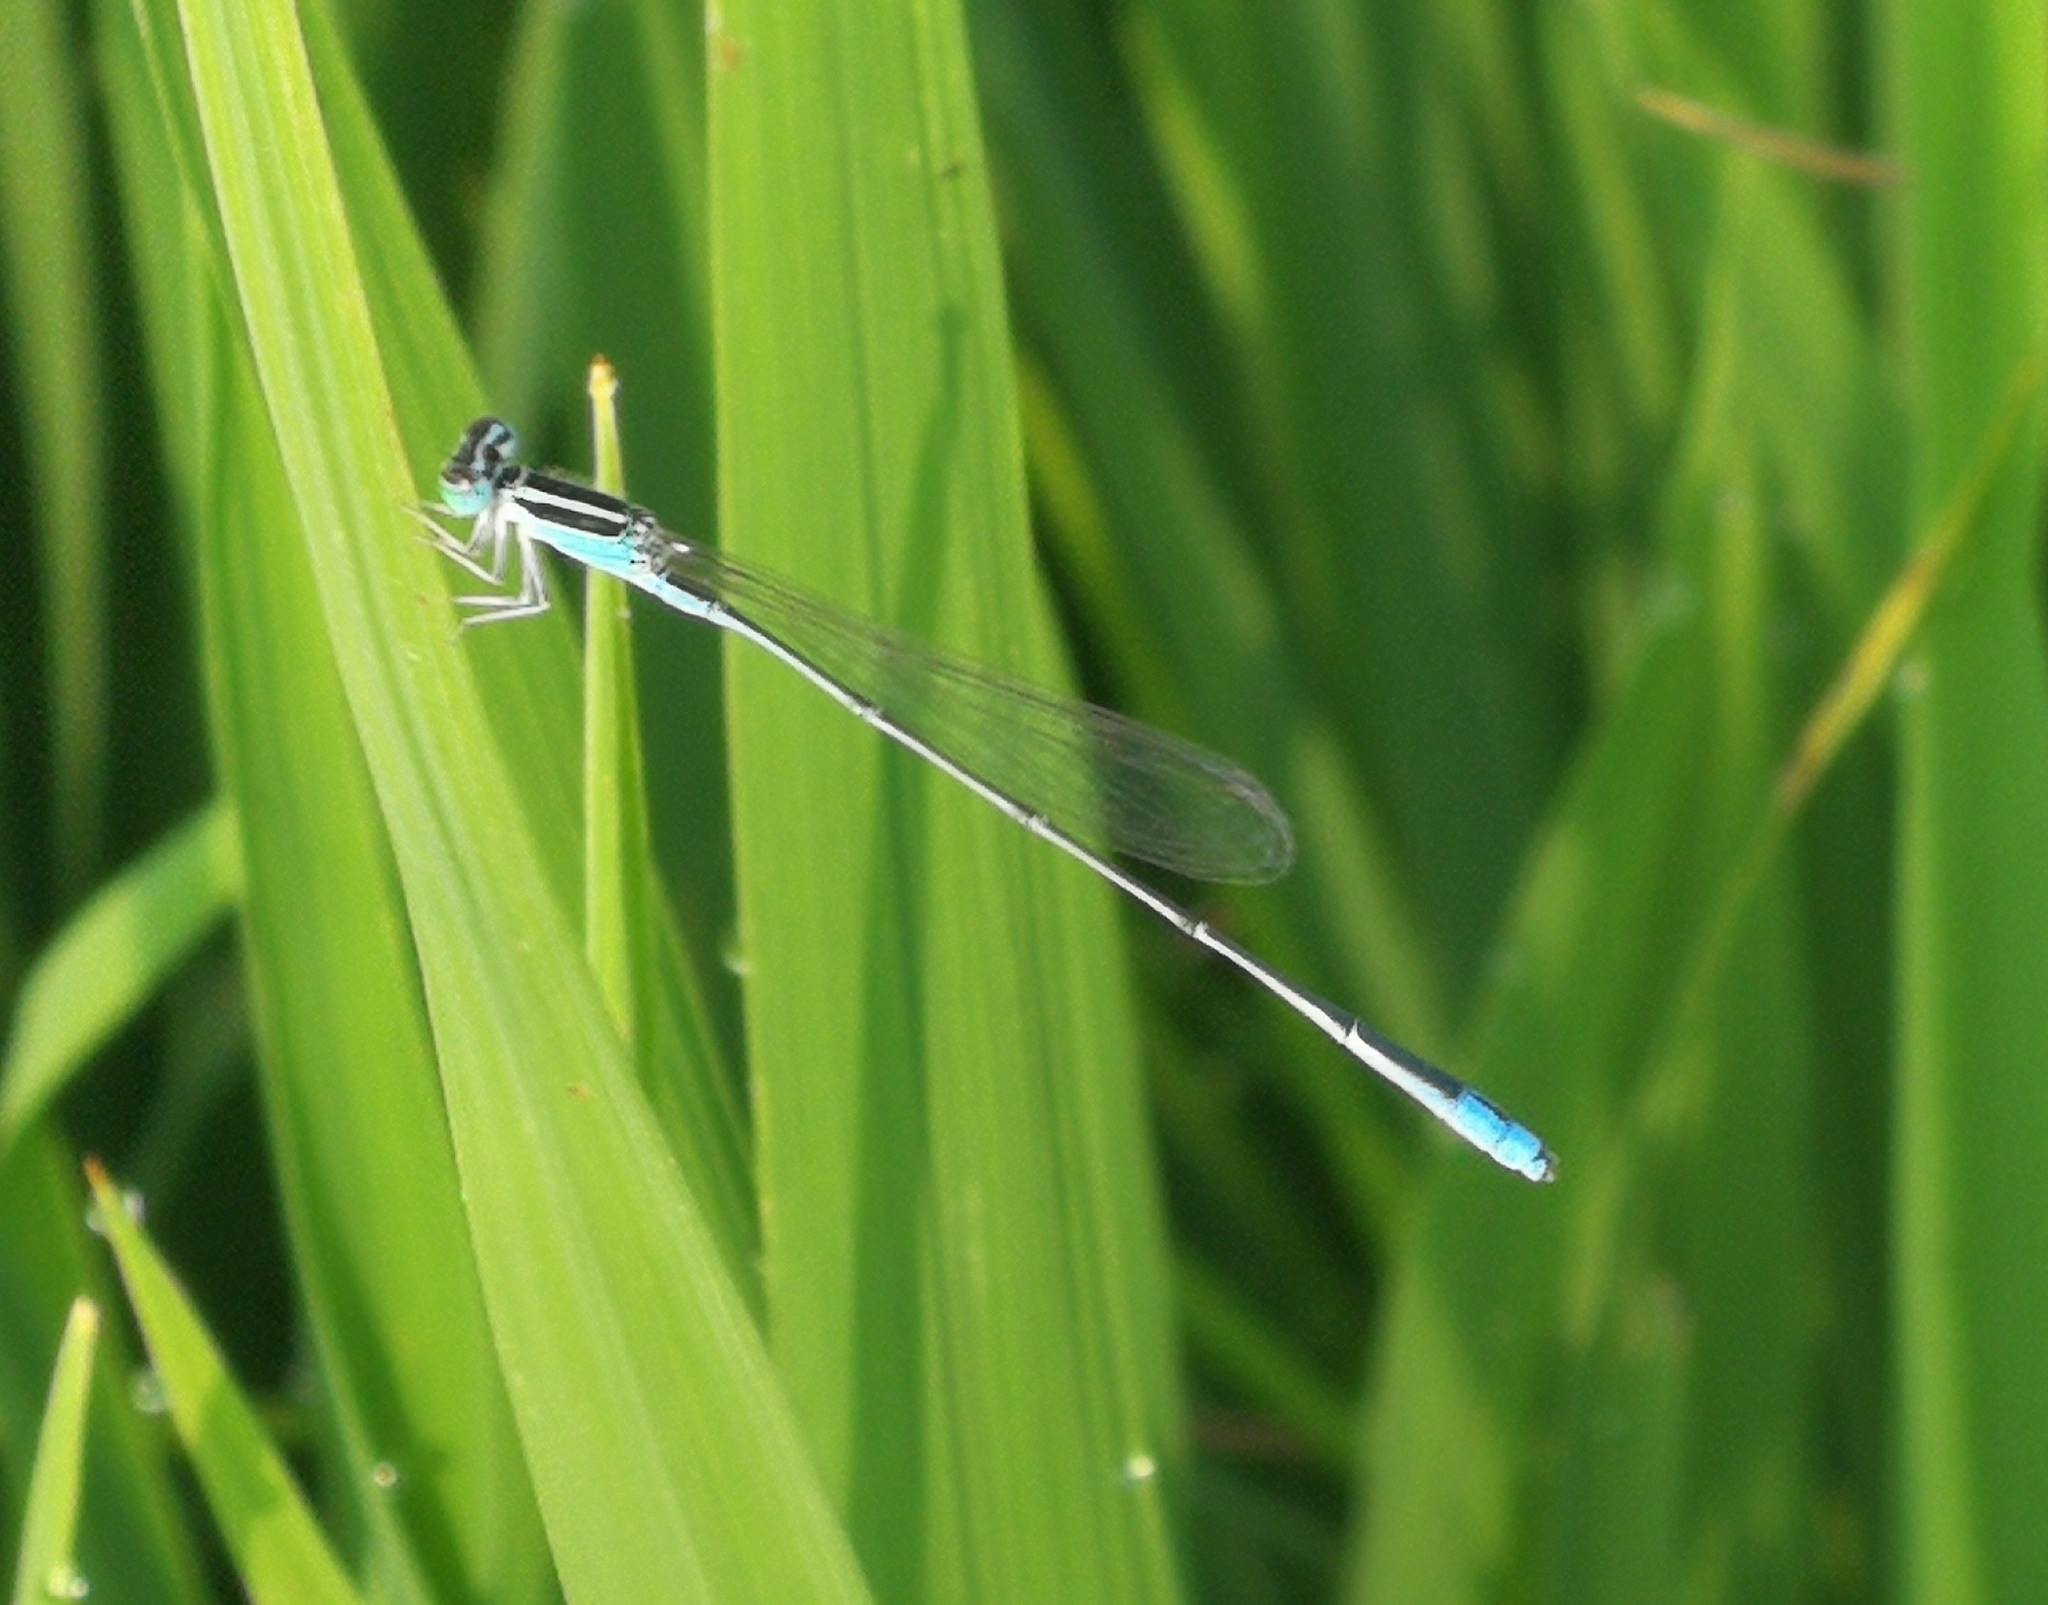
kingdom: Animalia
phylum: Arthropoda
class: Insecta
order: Odonata
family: Coenagrionidae
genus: Aciagrion
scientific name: Aciagrion occidentale
